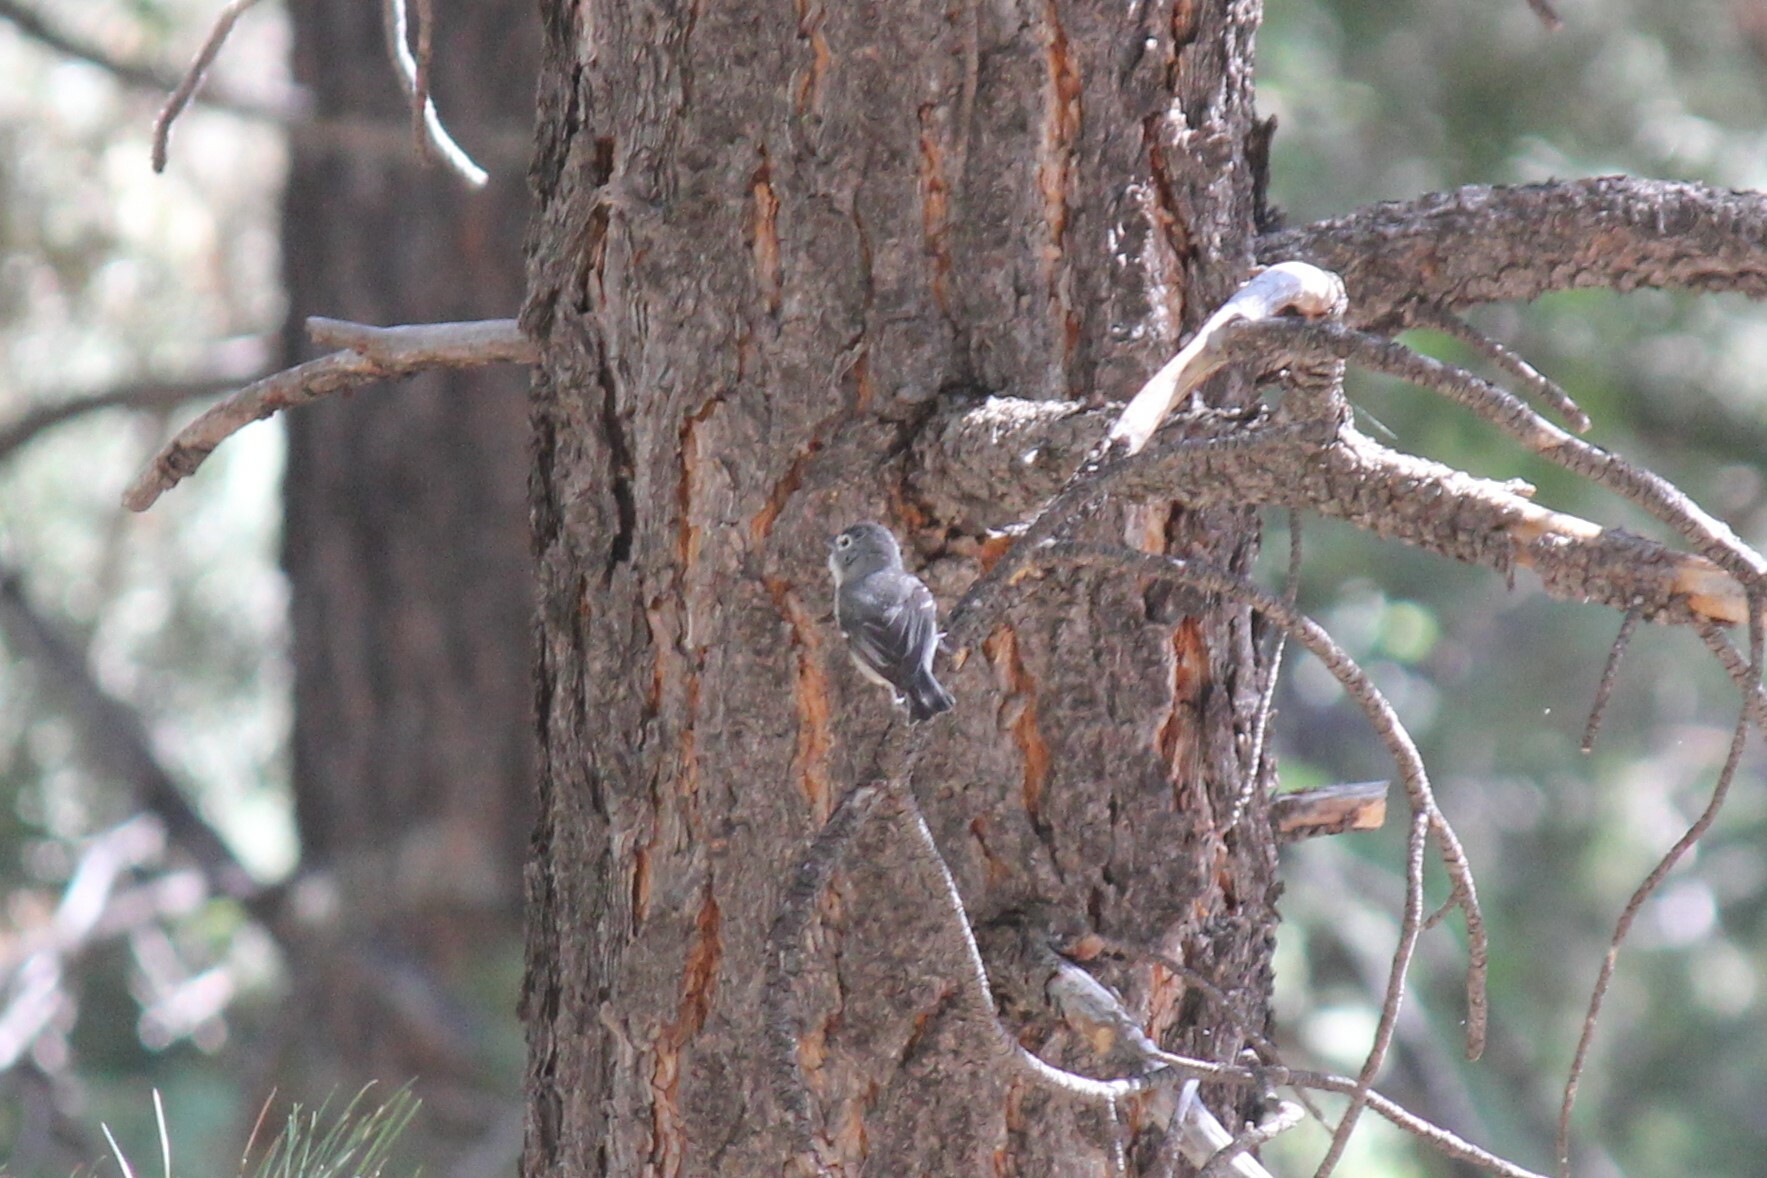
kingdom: Animalia
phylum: Chordata
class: Aves
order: Passeriformes
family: Vireonidae
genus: Vireo
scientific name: Vireo plumbeus
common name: Plumbeous vireo
